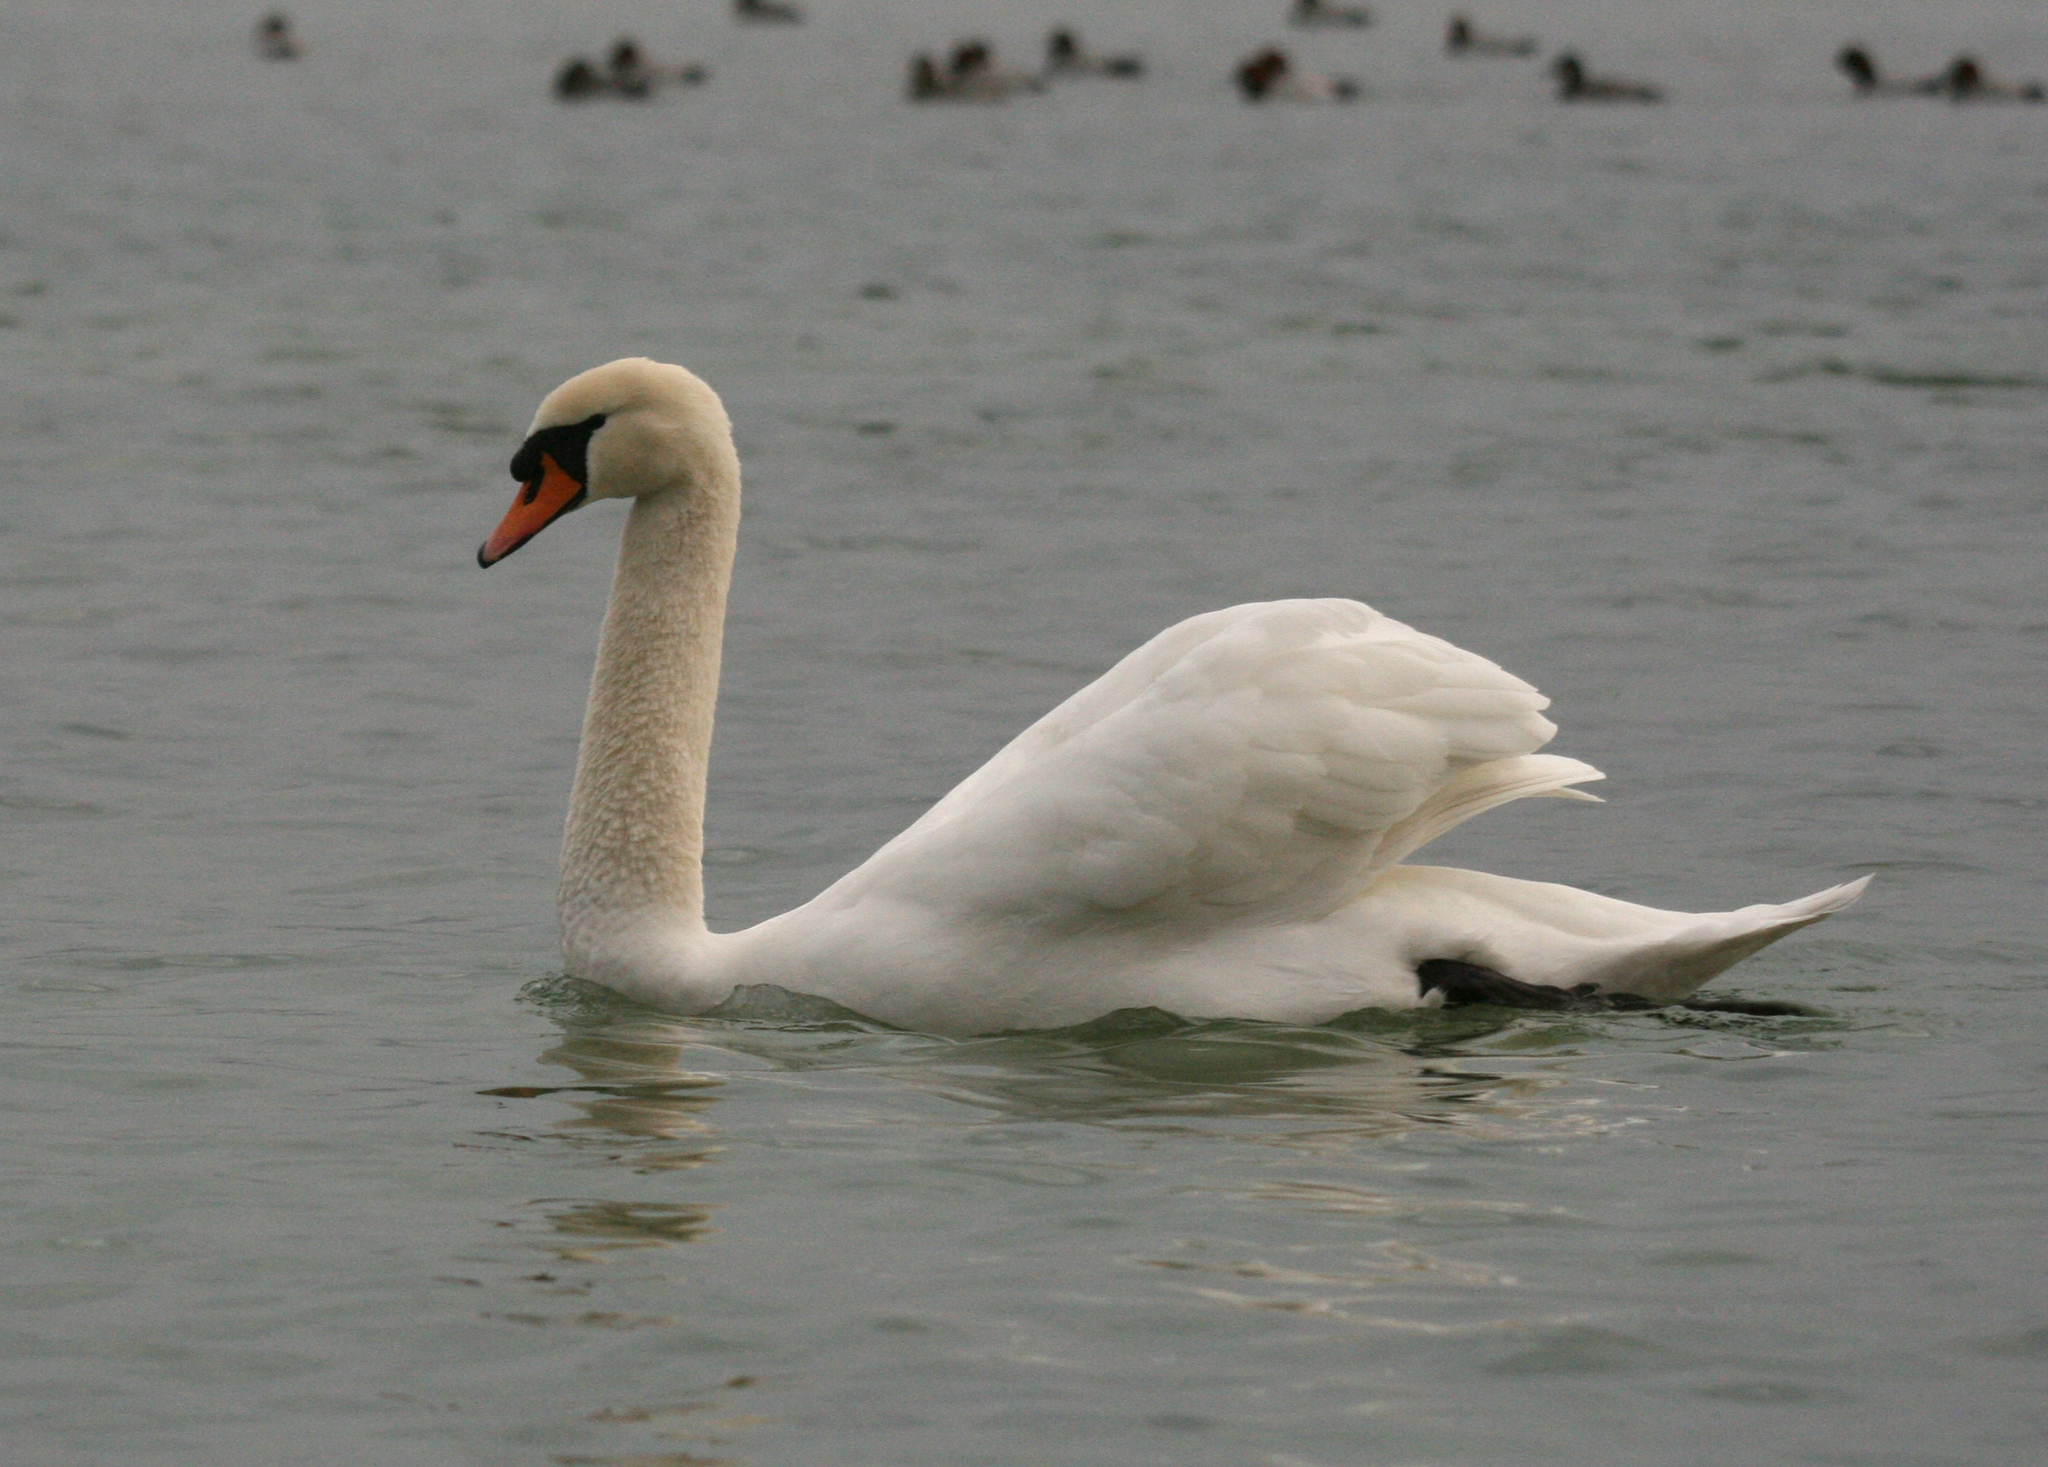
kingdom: Animalia
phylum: Chordata
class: Aves
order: Anseriformes
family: Anatidae
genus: Cygnus
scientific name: Cygnus olor
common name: Mute swan
